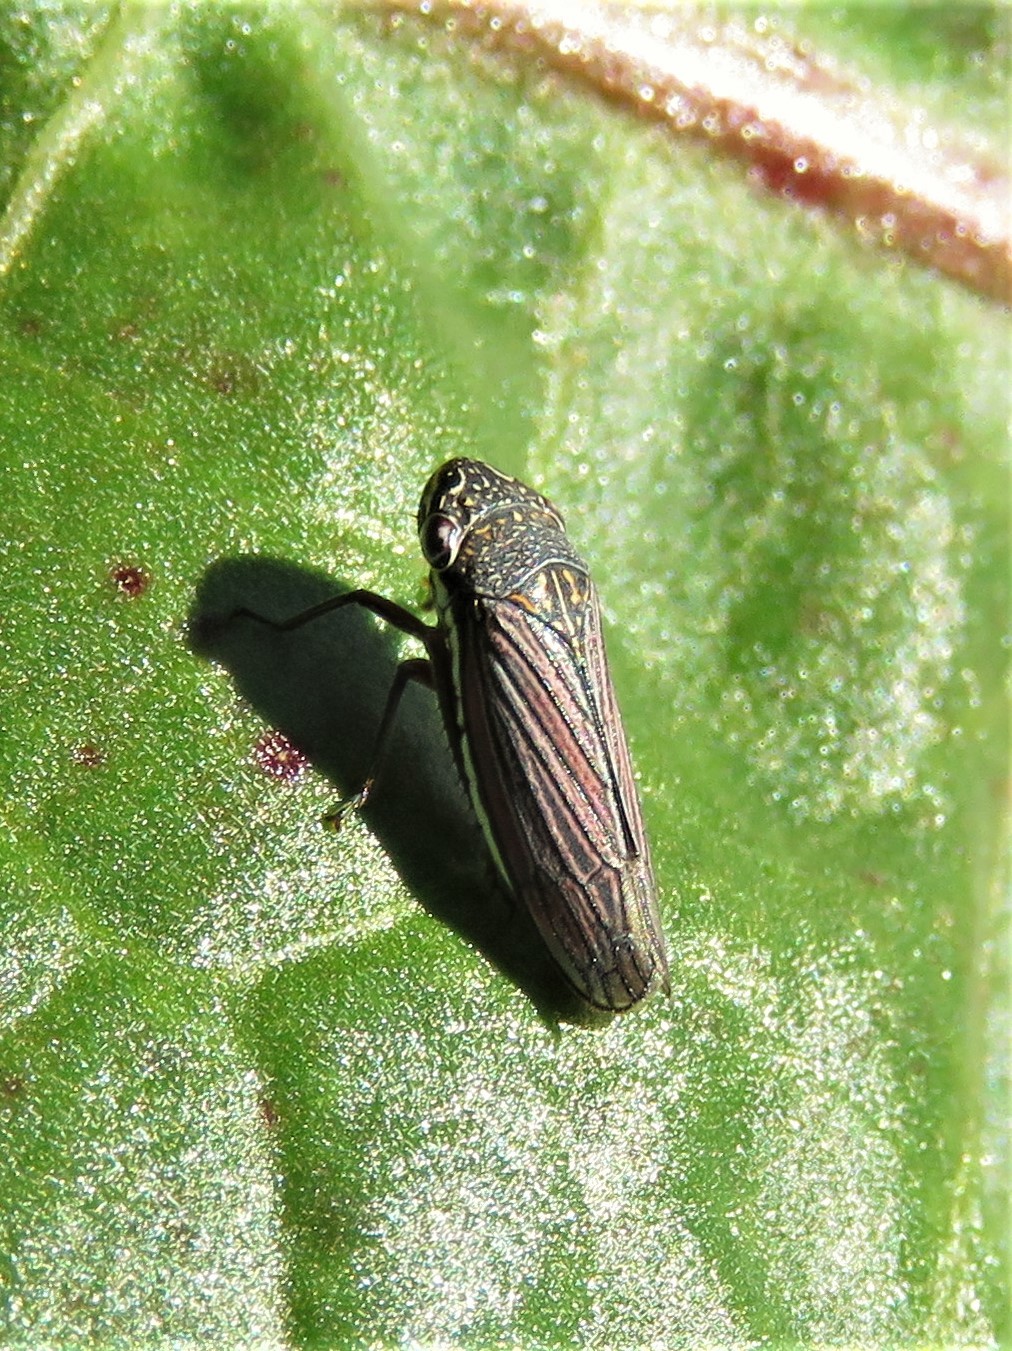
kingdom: Animalia
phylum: Arthropoda
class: Insecta
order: Hemiptera
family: Cicadellidae
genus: Cuerna
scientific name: Cuerna costalis
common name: Lateral-lined sharpshooter
